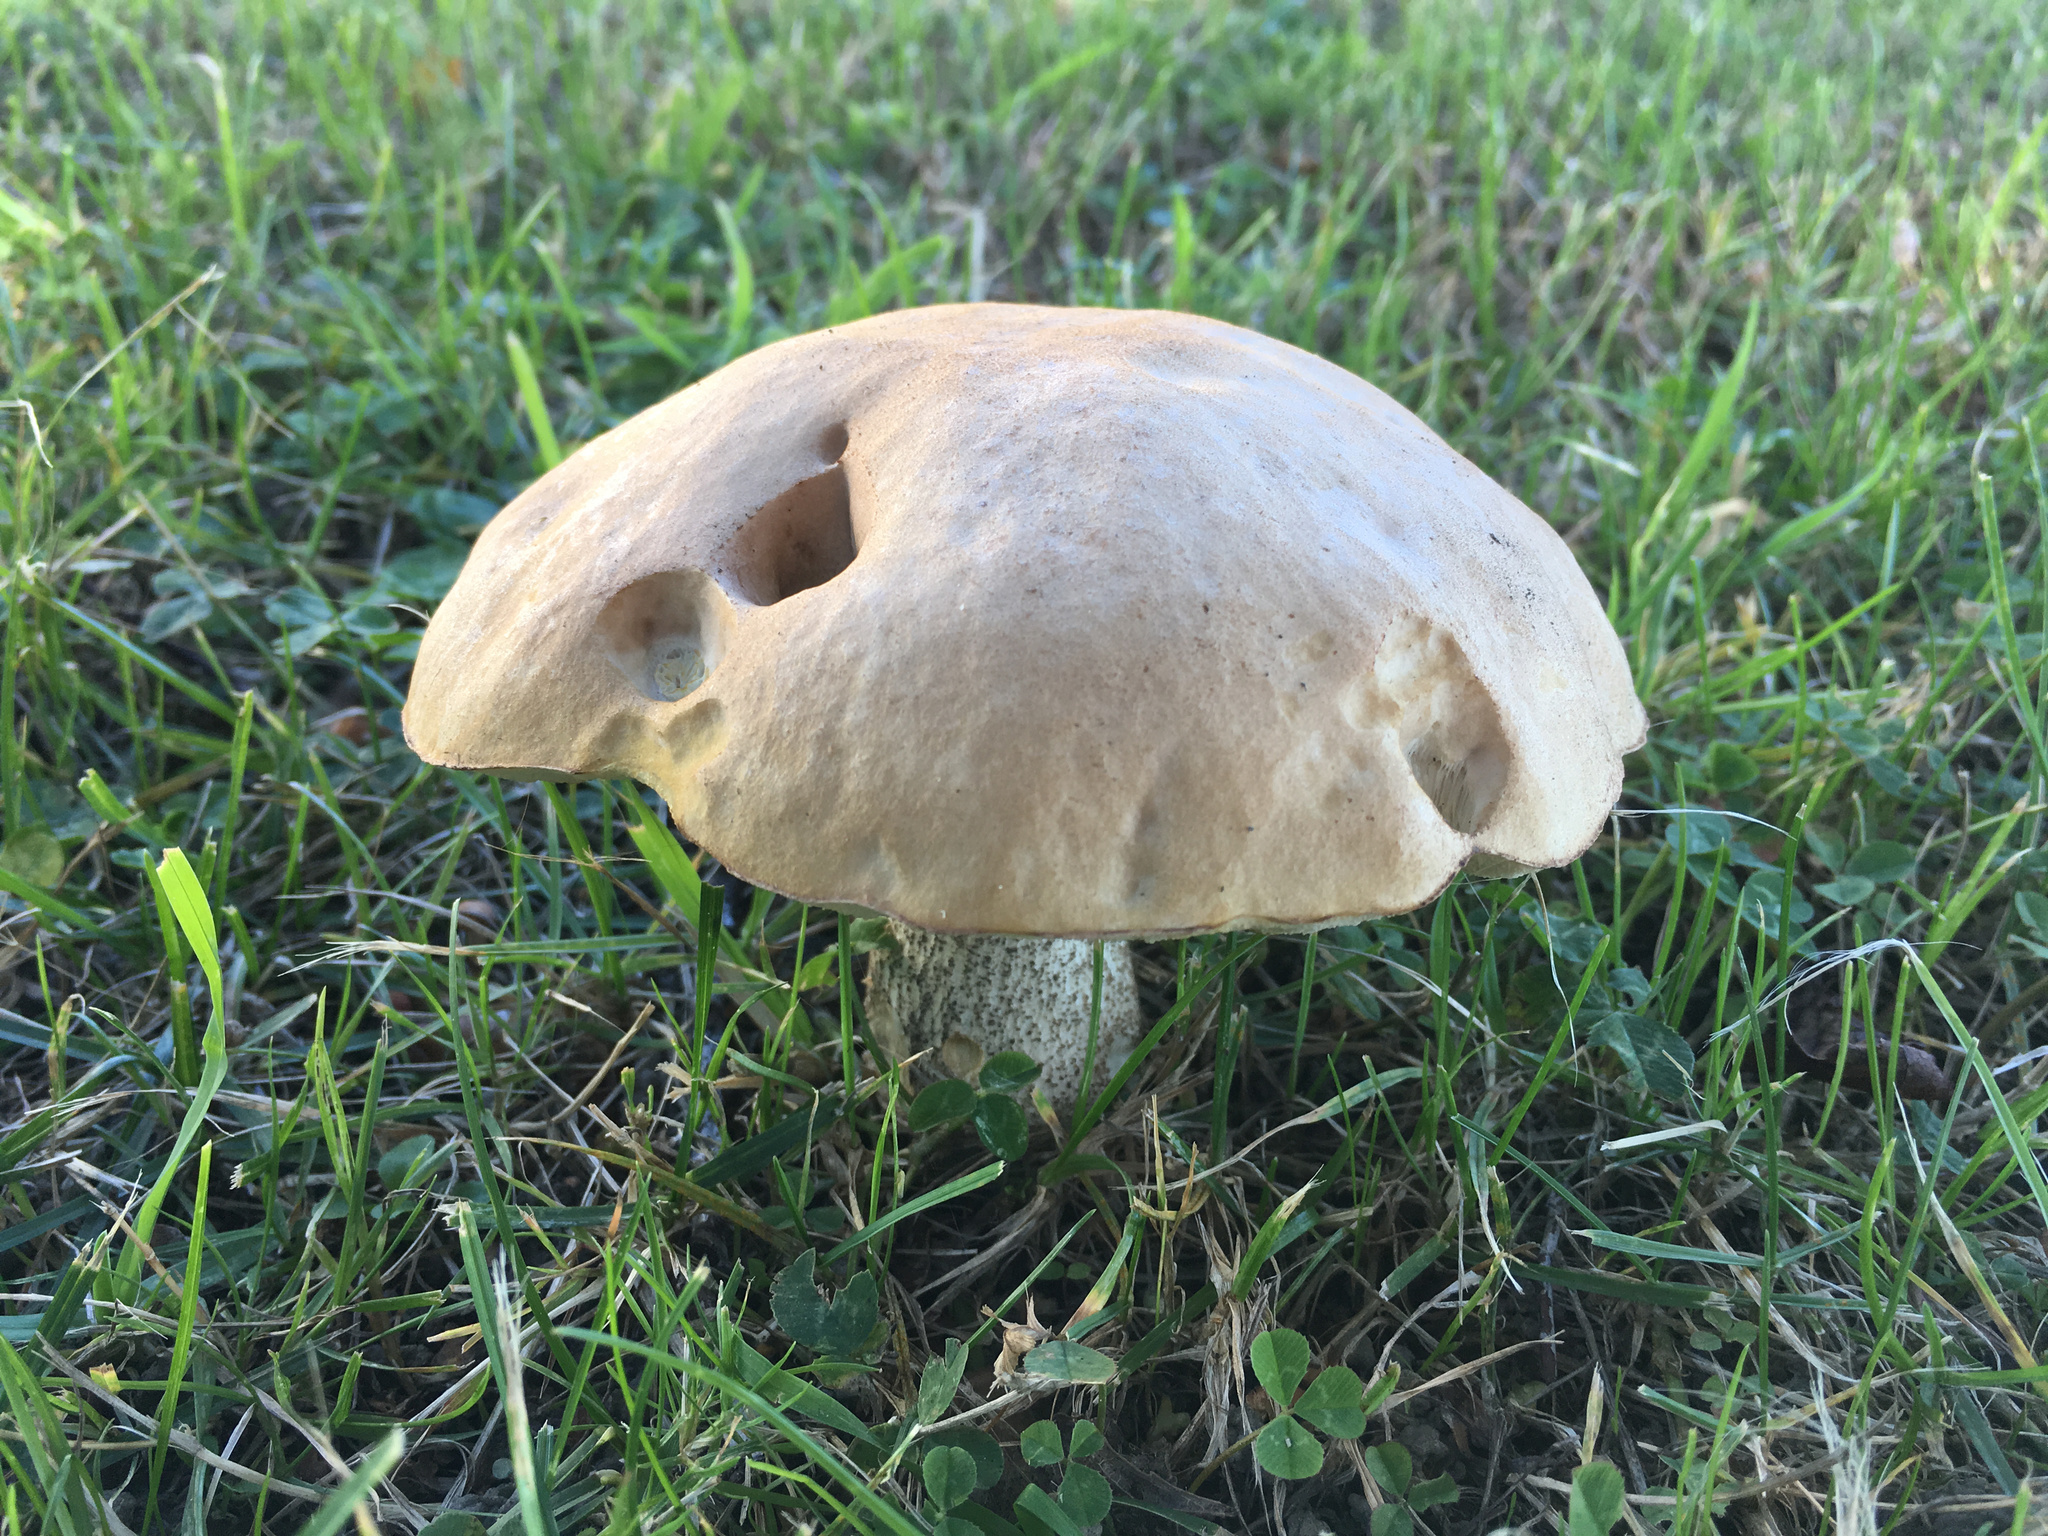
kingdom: Fungi
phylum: Basidiomycota
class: Agaricomycetes
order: Boletales
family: Boletaceae
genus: Leccinum
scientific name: Leccinum scabrum
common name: Blushing bolete
